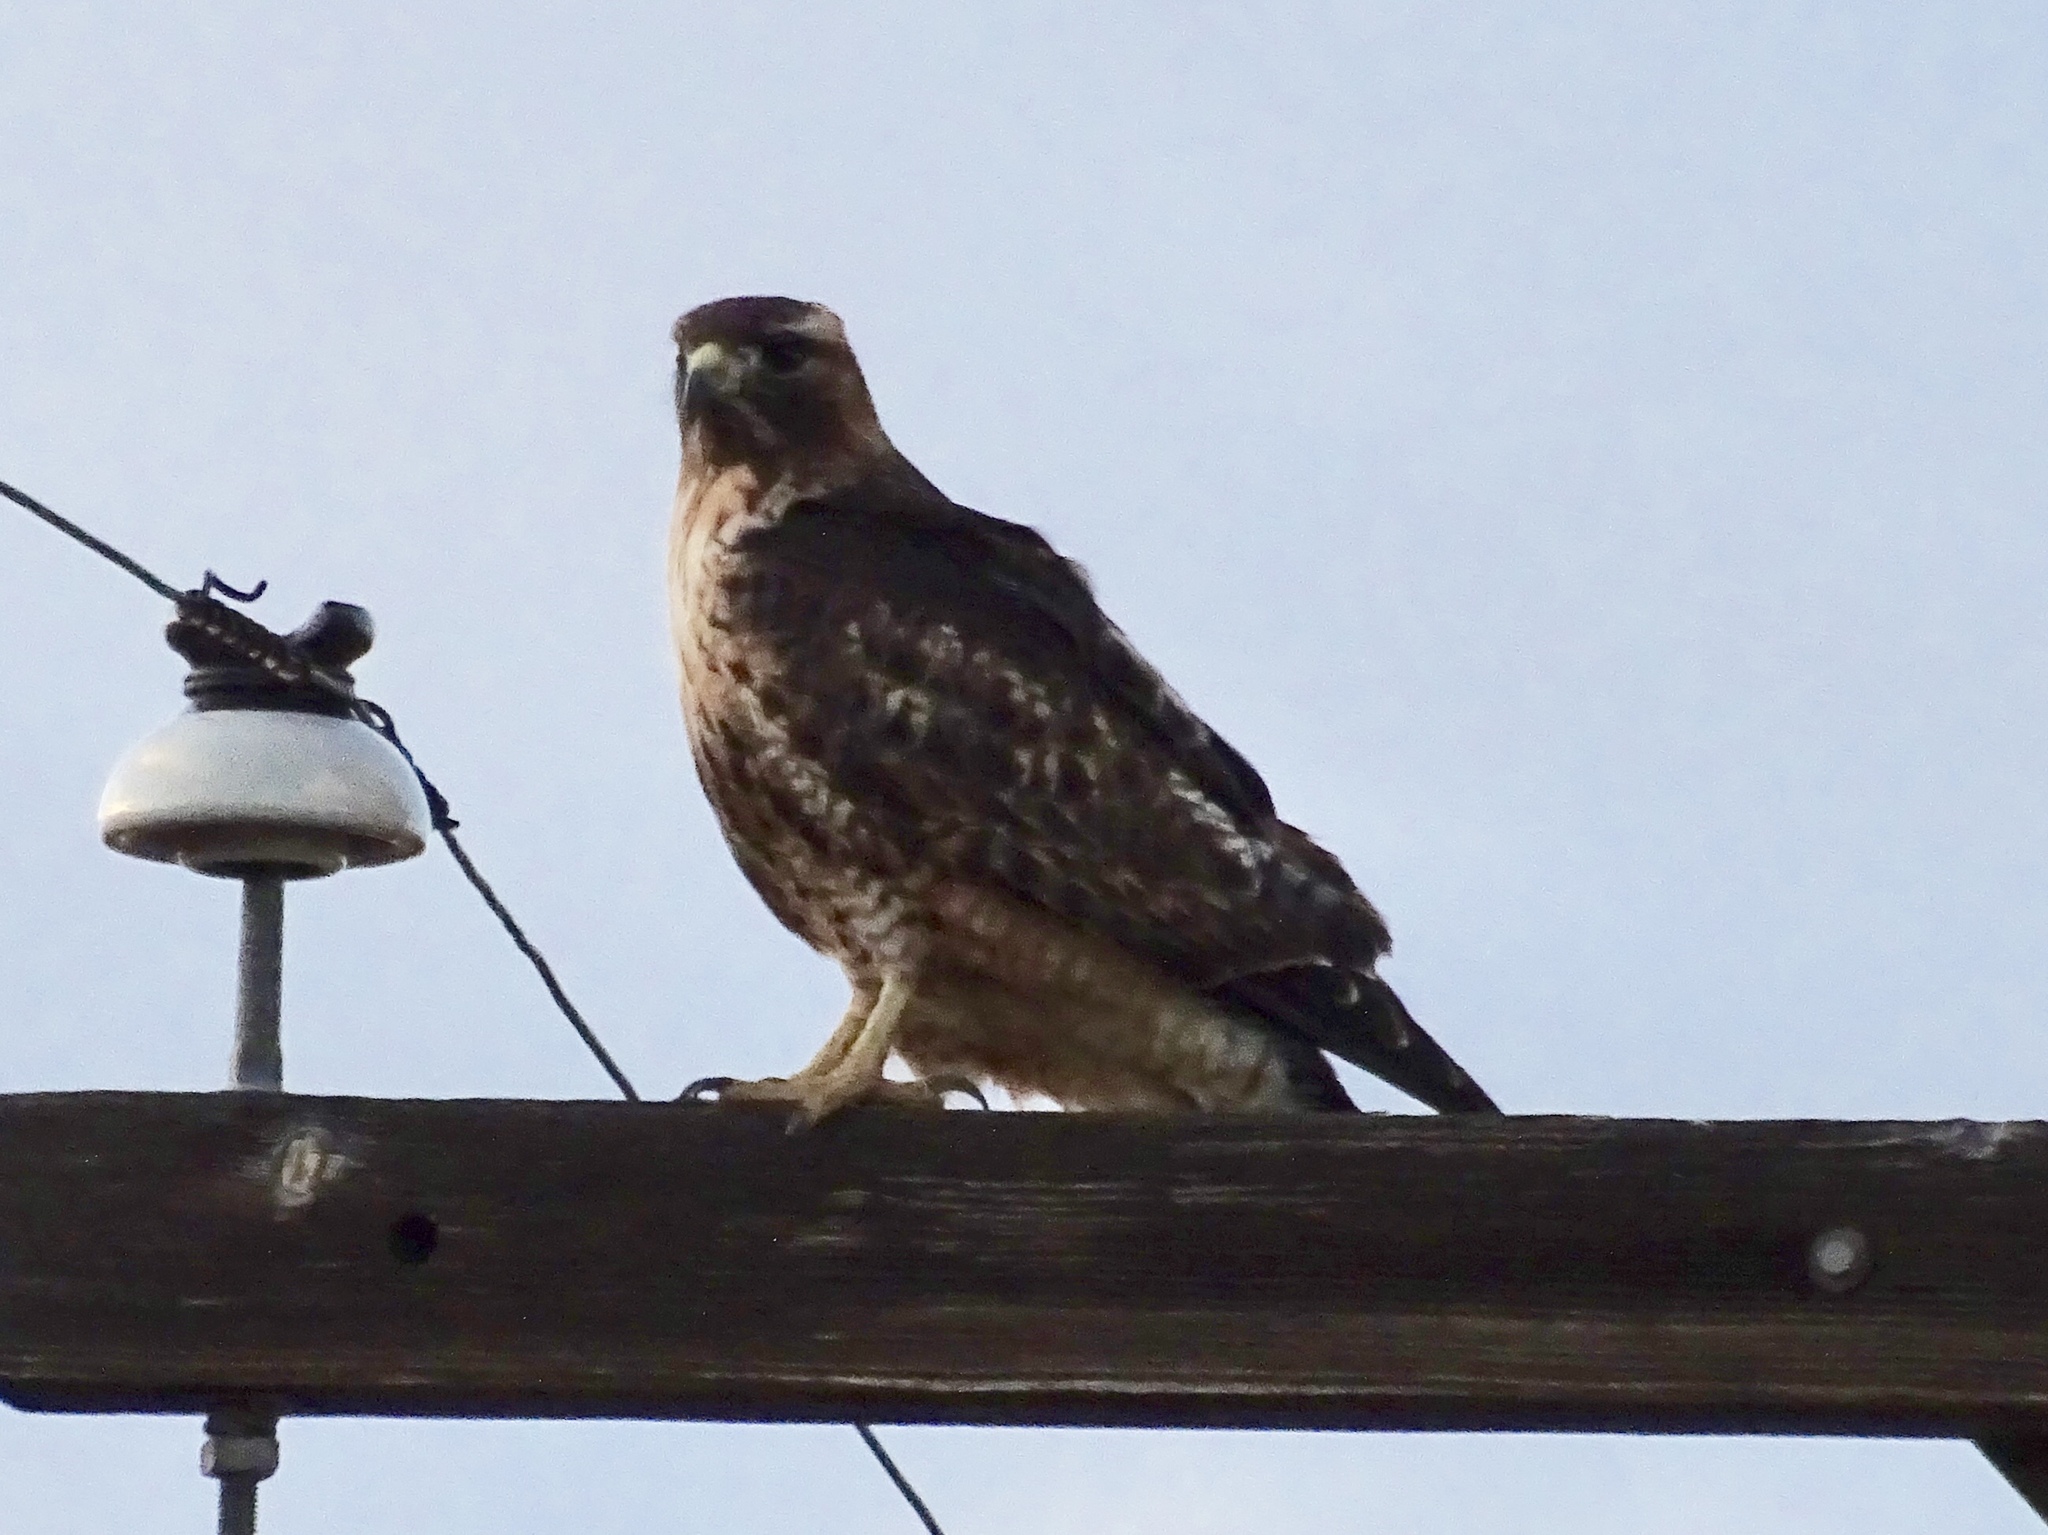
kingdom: Animalia
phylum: Chordata
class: Aves
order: Accipitriformes
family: Accipitridae
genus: Buteo
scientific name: Buteo jamaicensis
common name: Red-tailed hawk
